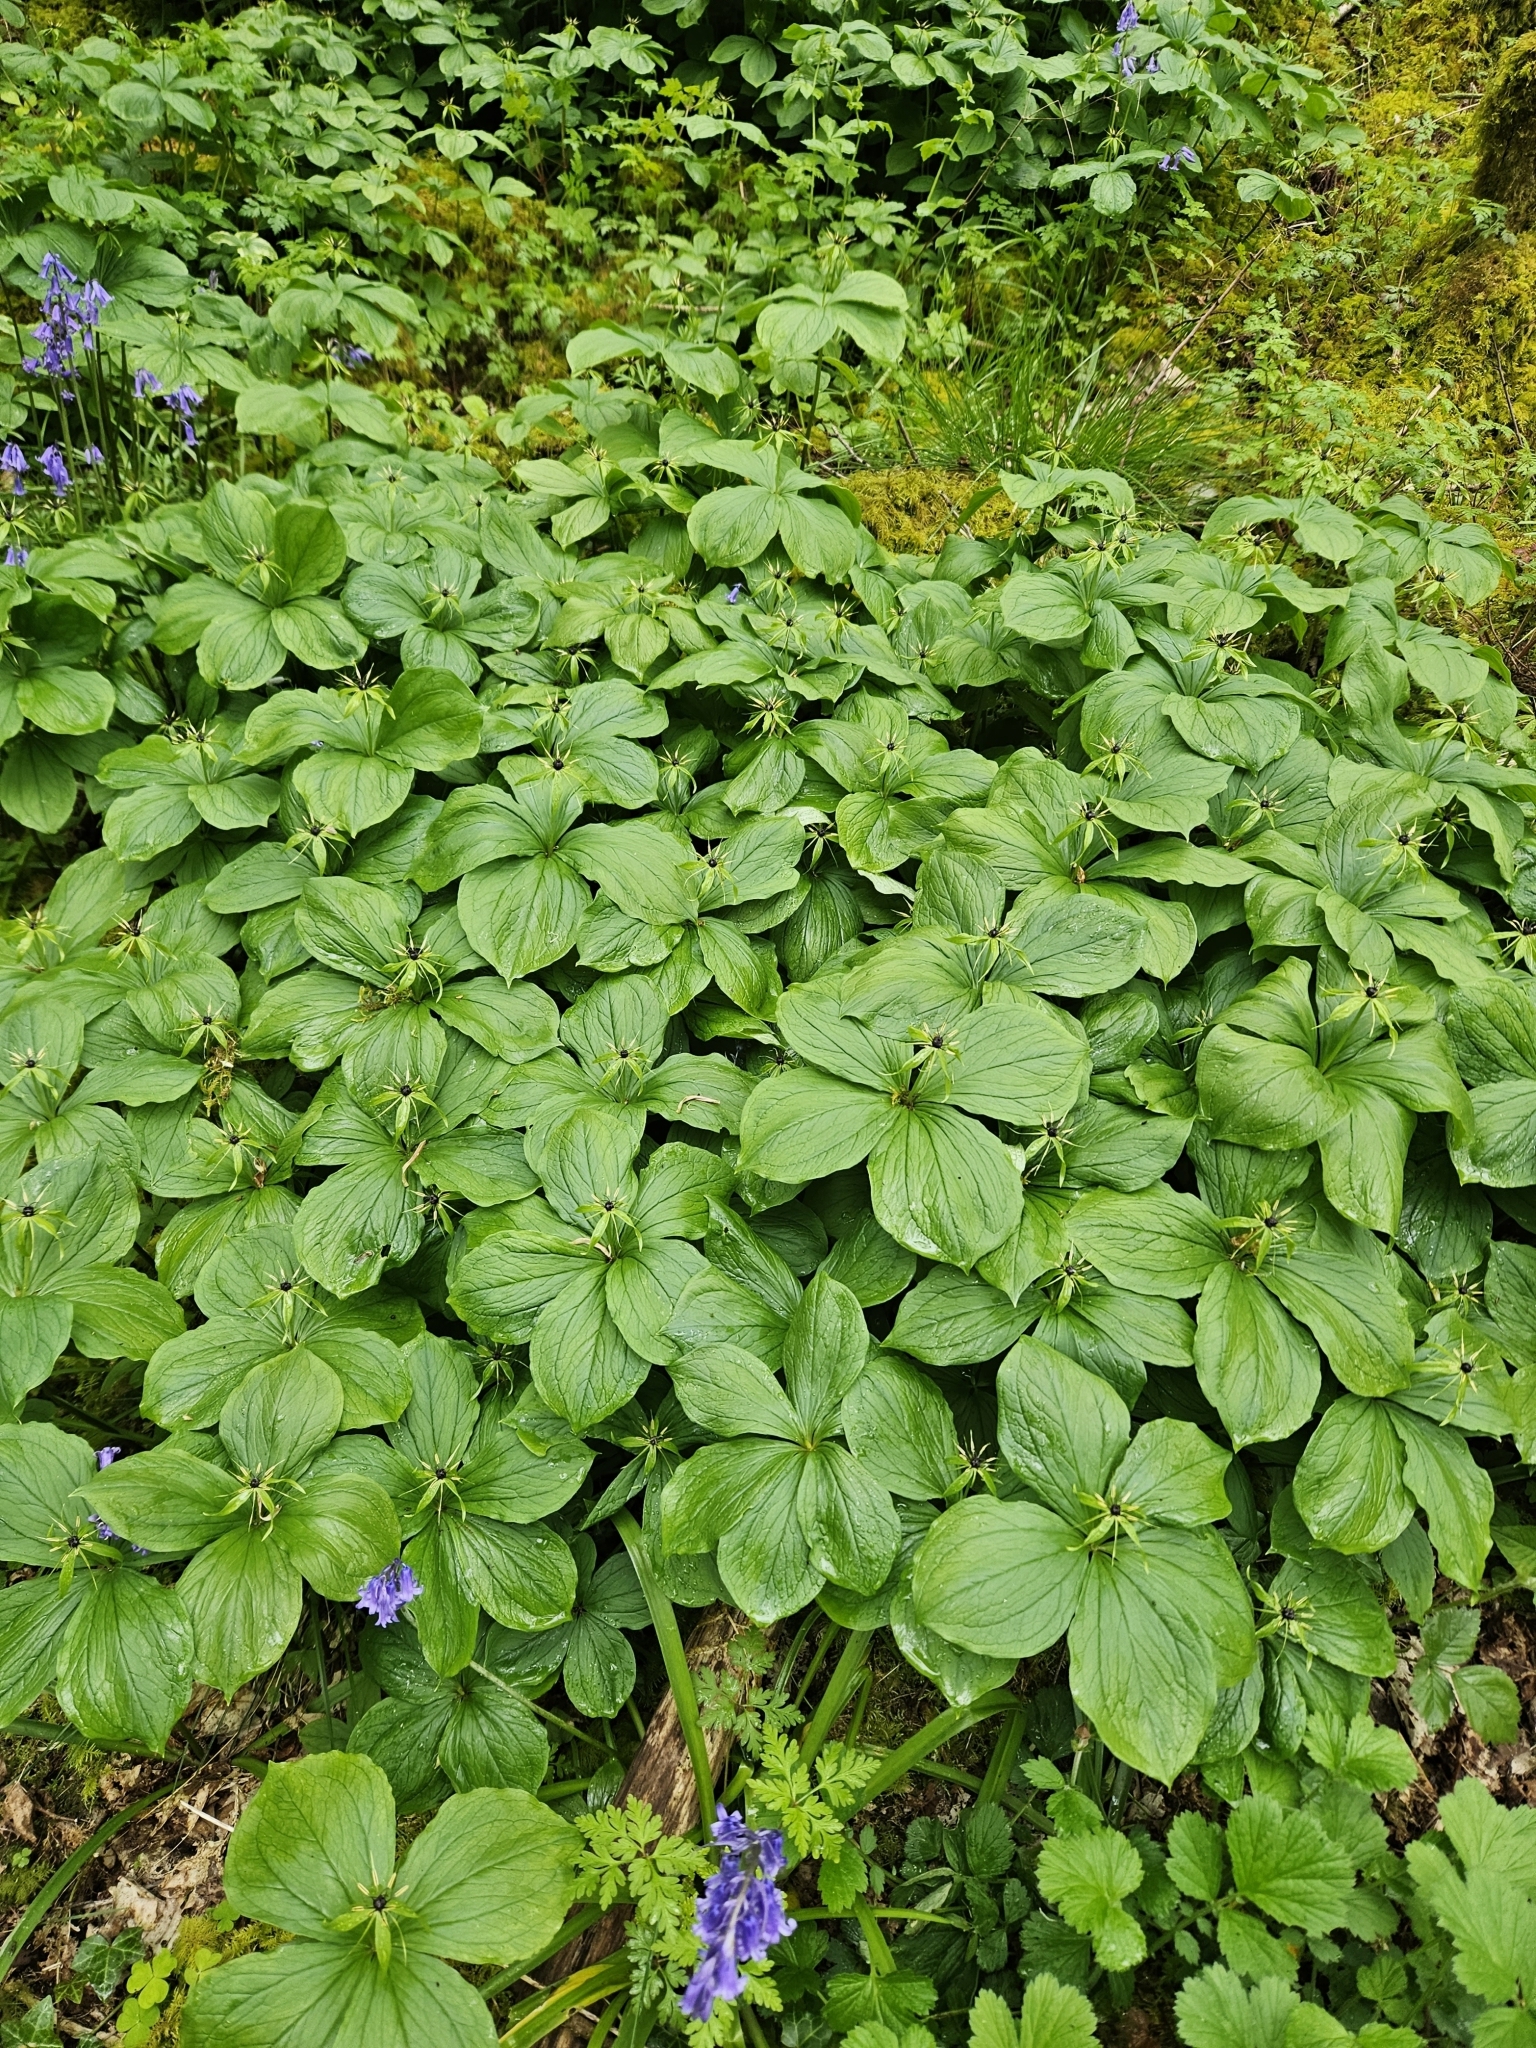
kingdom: Plantae
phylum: Tracheophyta
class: Liliopsida
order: Liliales
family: Melanthiaceae
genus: Paris
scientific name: Paris quadrifolia
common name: Herb-paris
